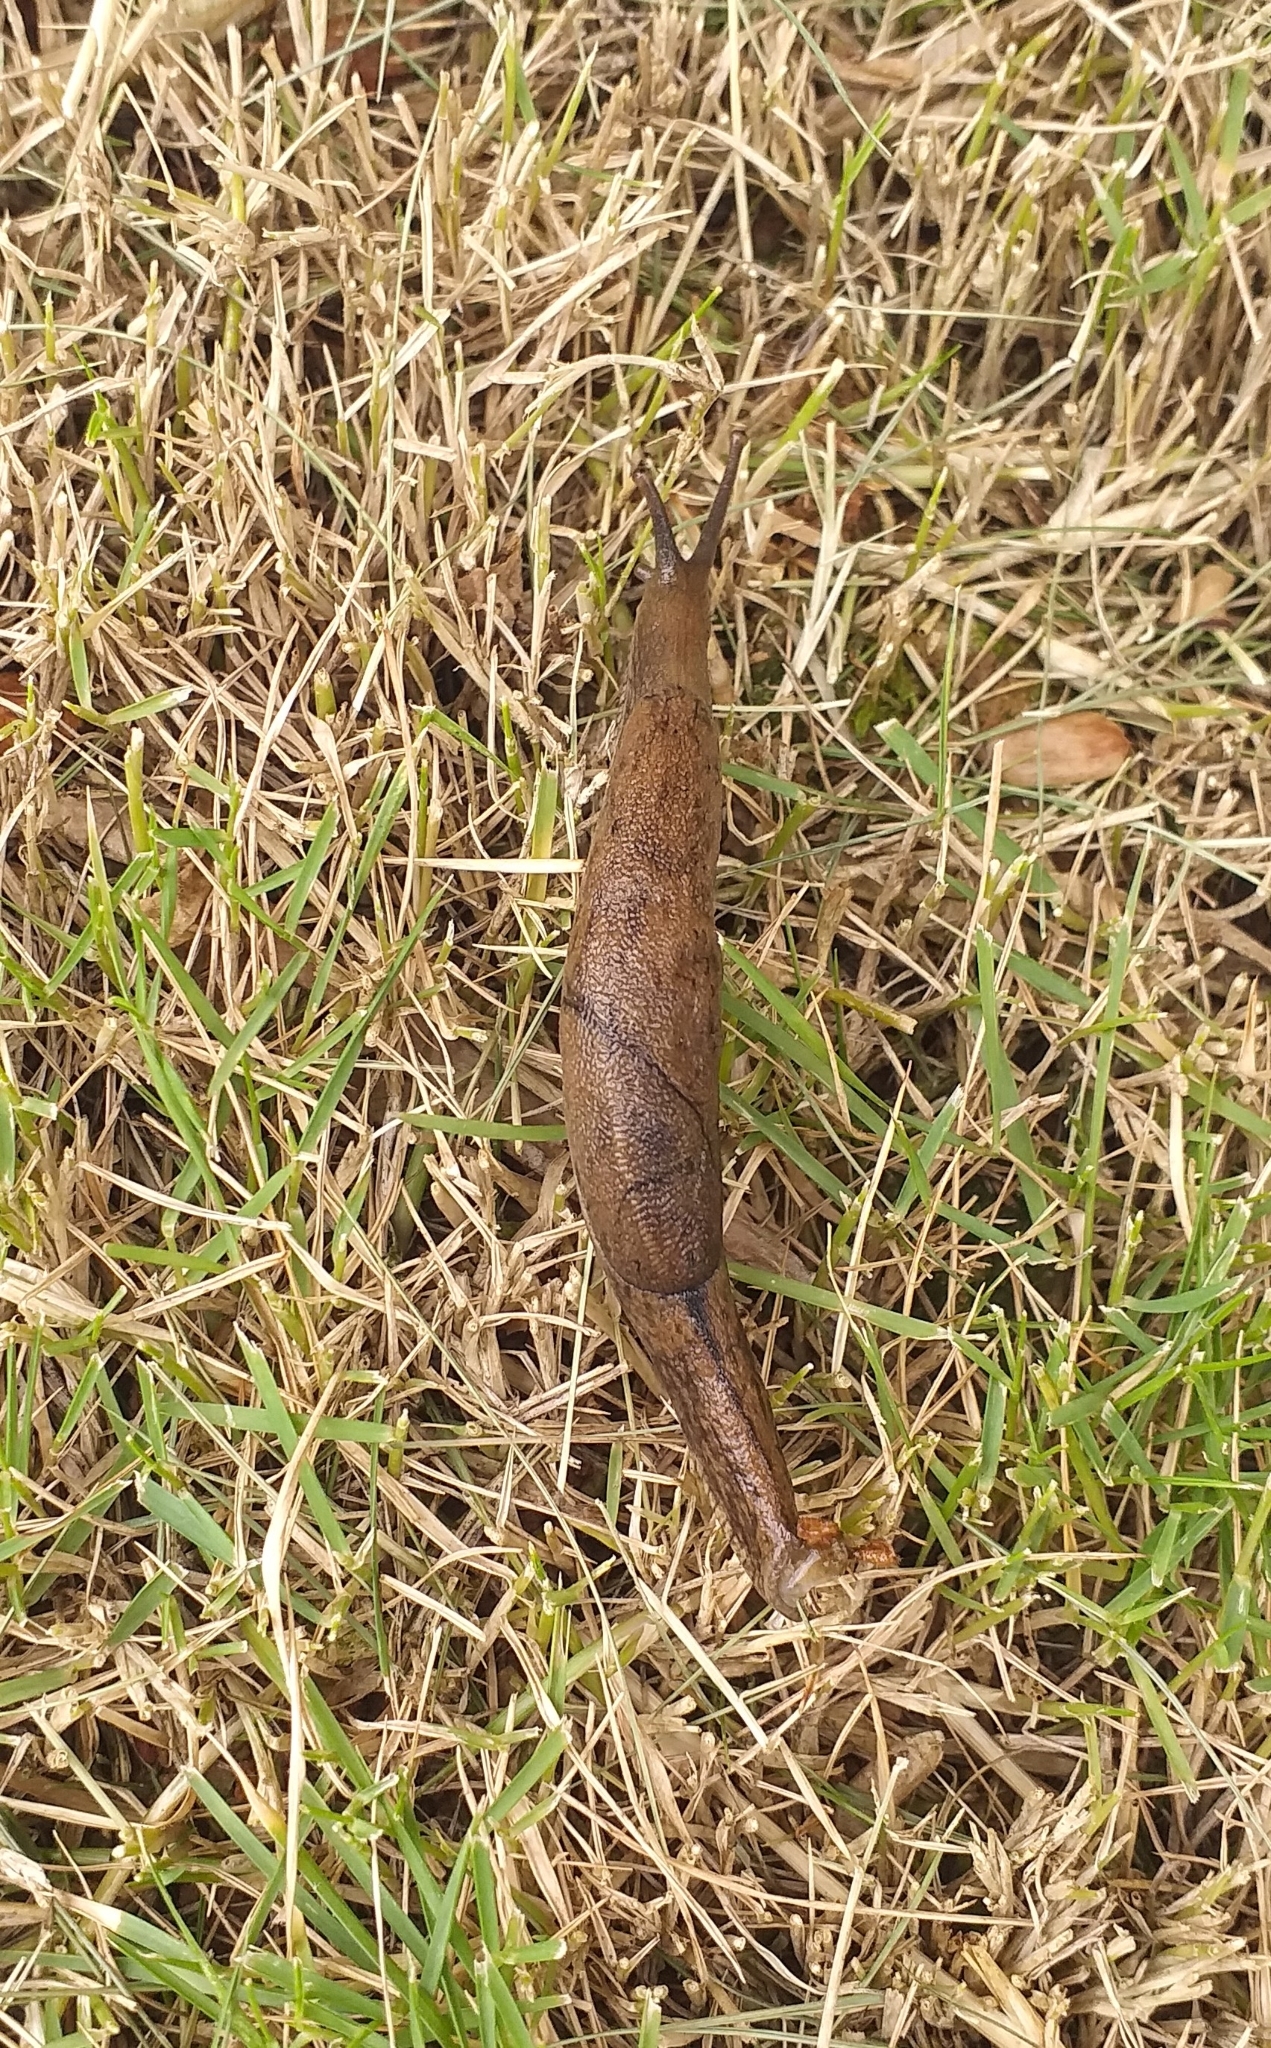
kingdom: Animalia
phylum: Mollusca
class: Gastropoda
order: Stylommatophora
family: Ariophantidae
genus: Mariaella
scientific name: Mariaella dussumieri
